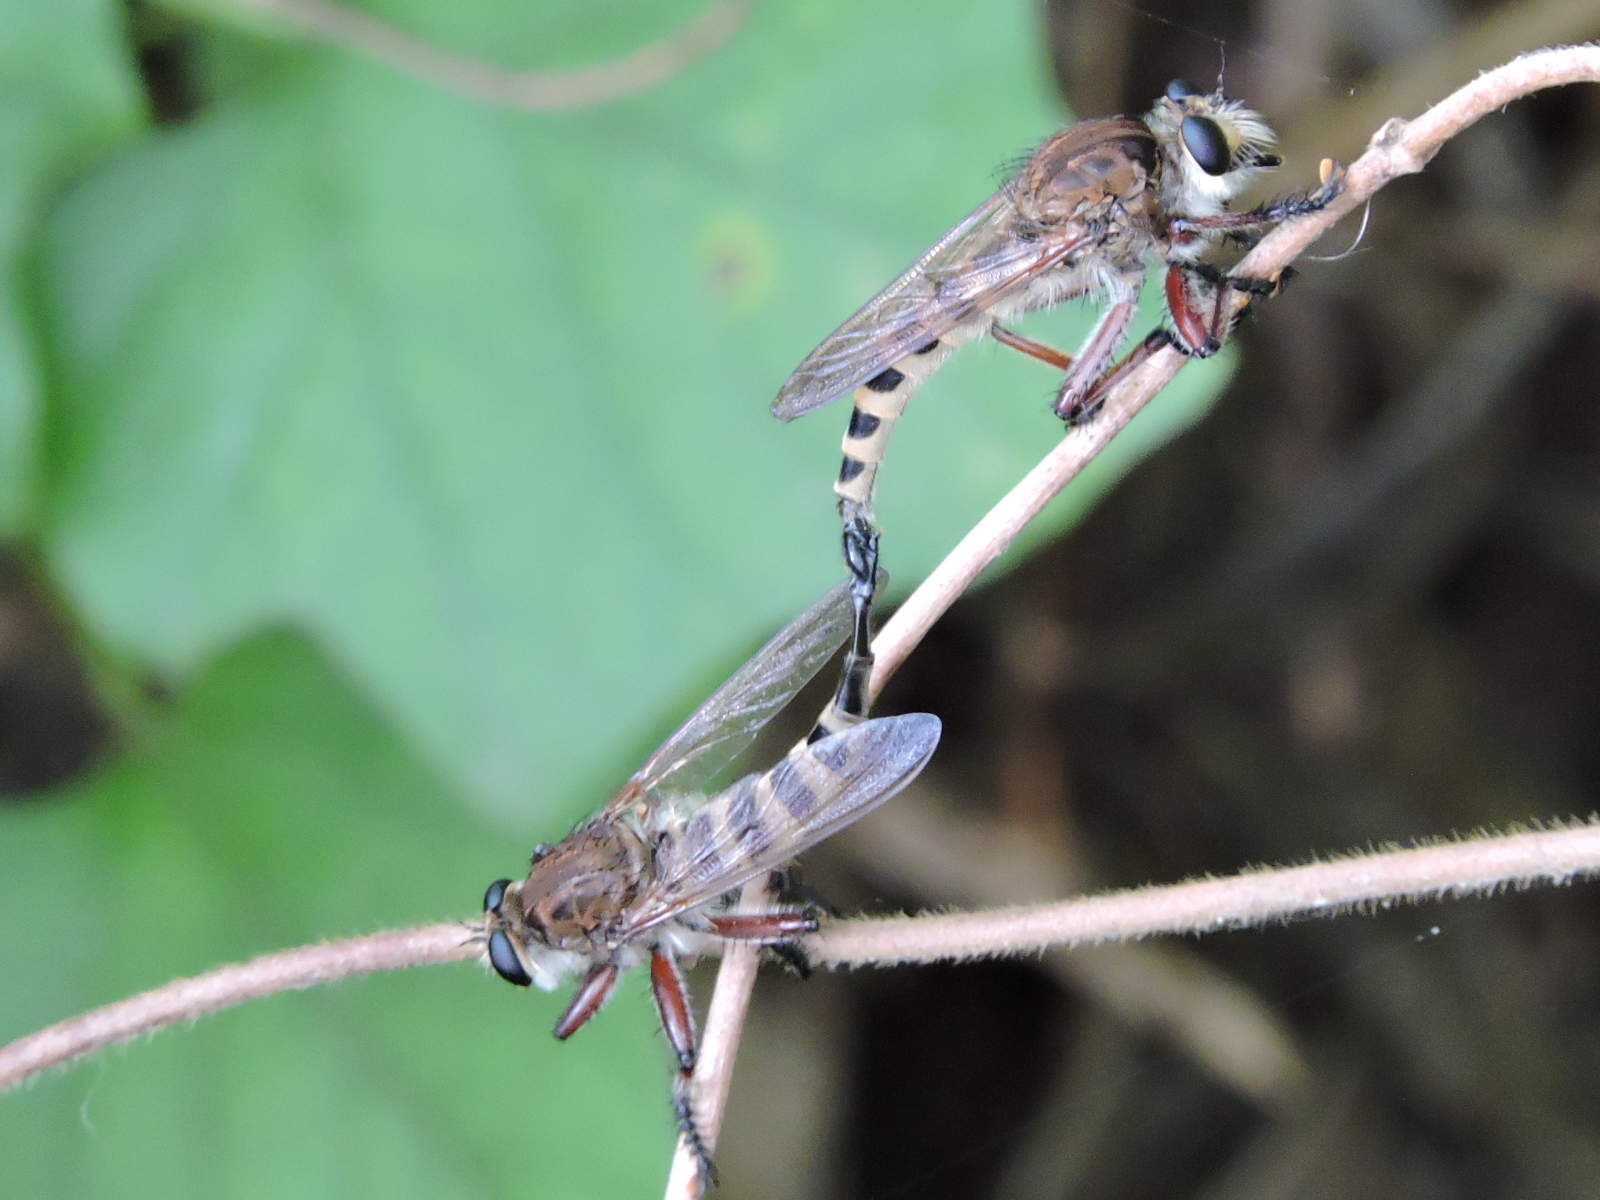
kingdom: Animalia
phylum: Arthropoda
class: Insecta
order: Diptera
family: Asilidae
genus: Promachus
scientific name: Promachus hinei
